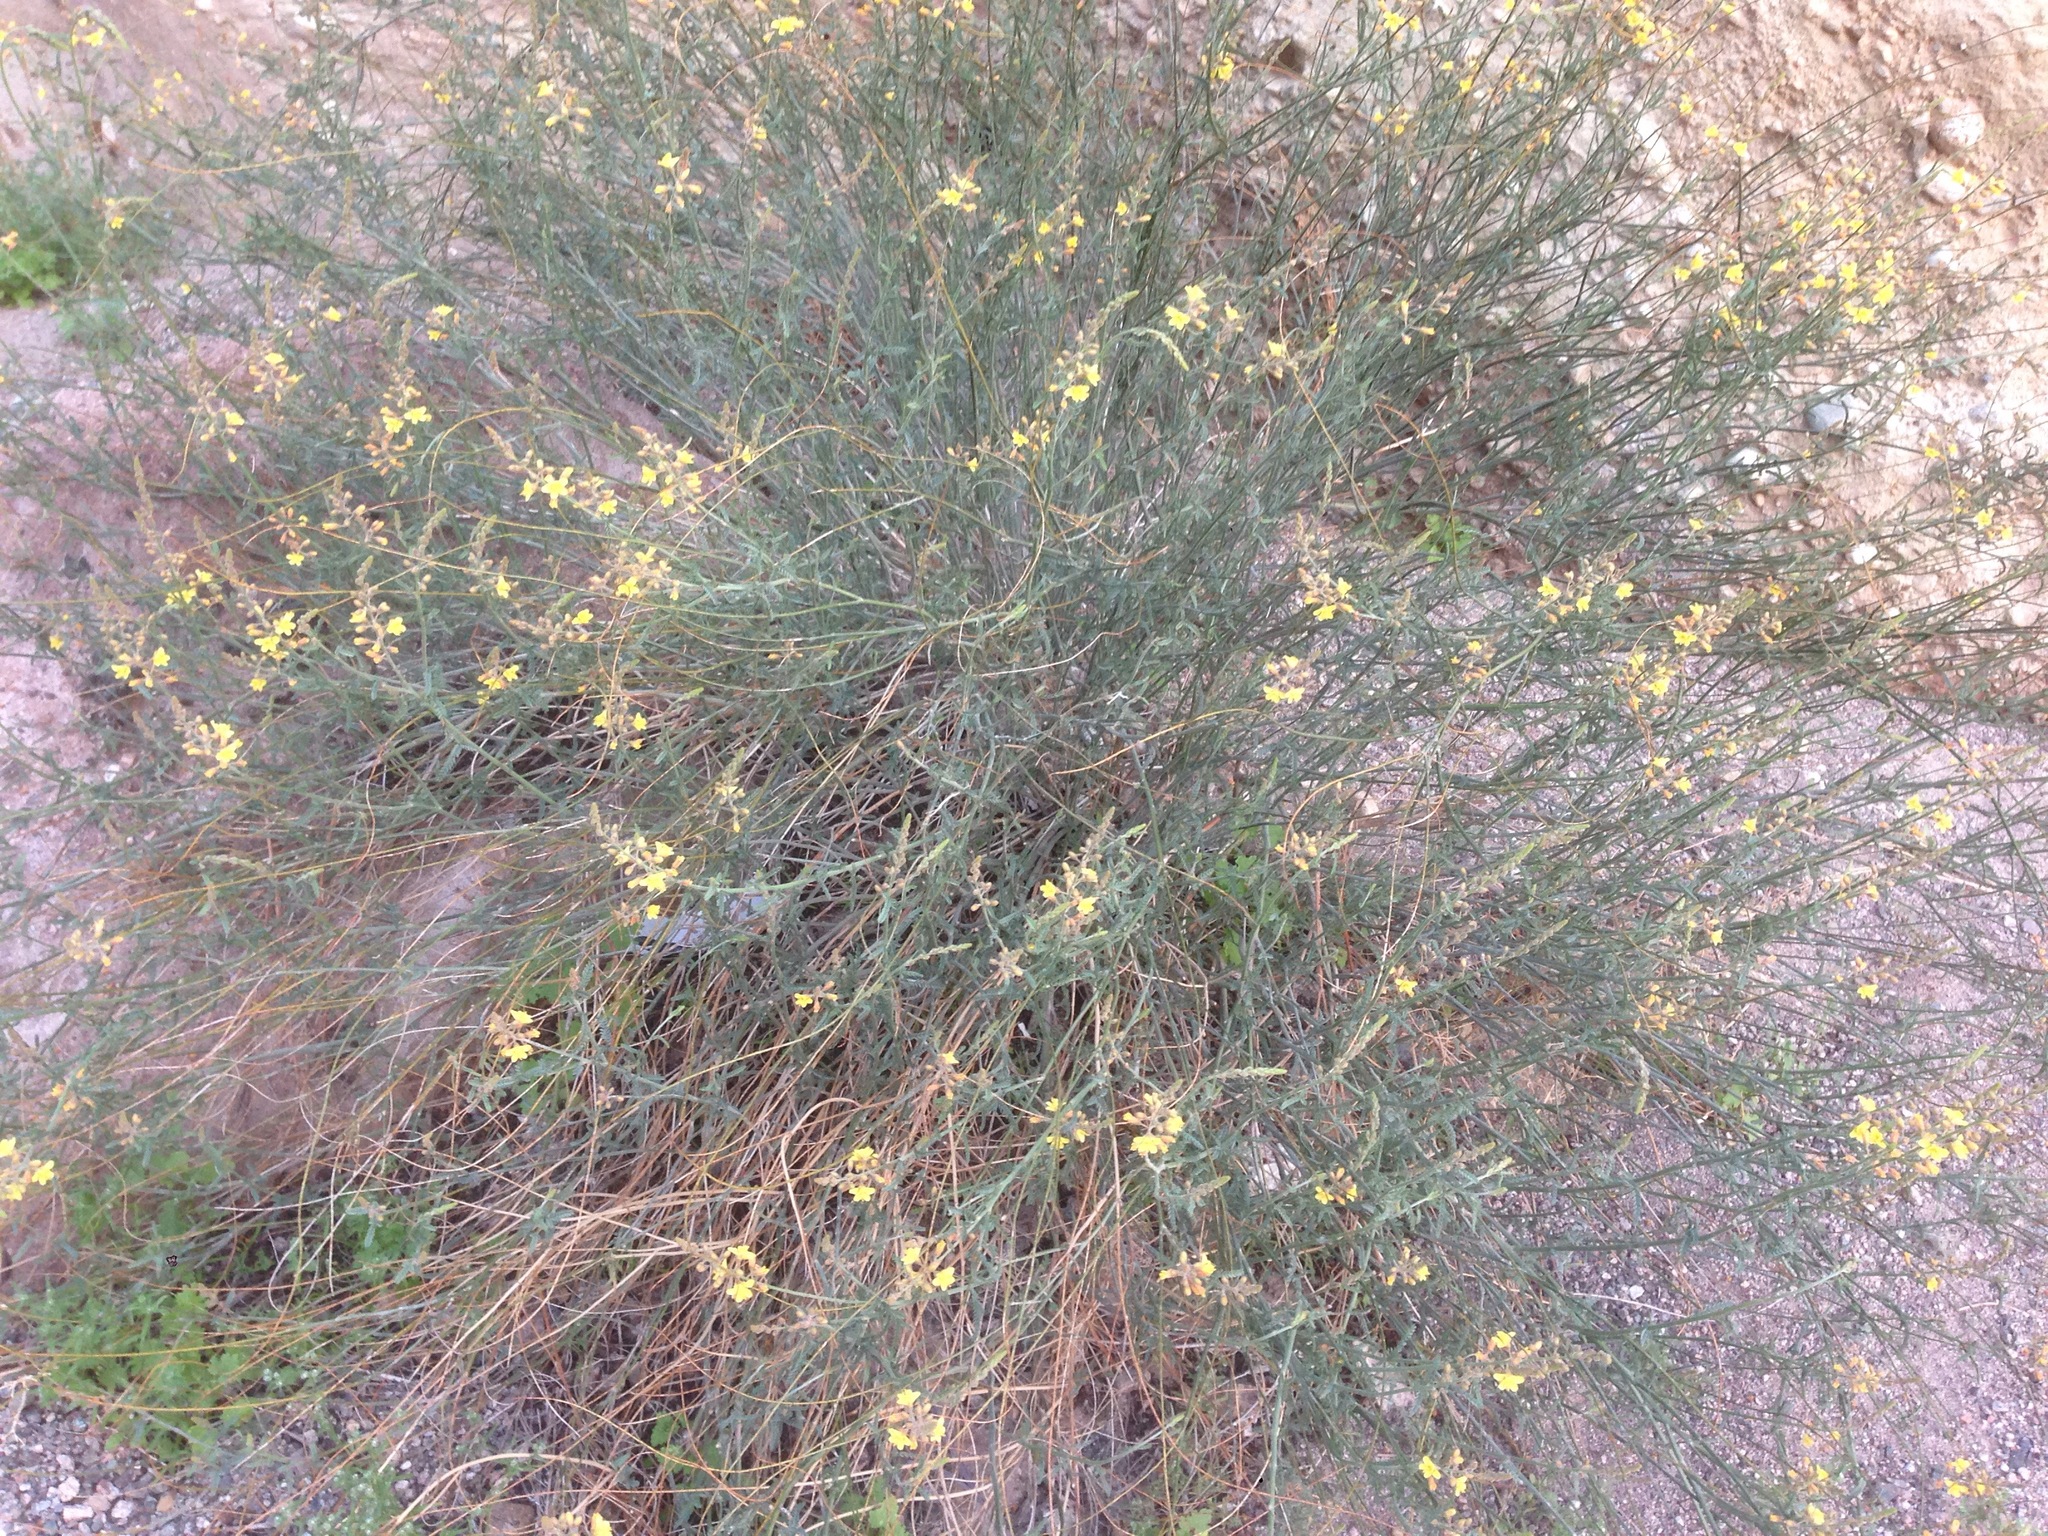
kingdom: Plantae
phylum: Tracheophyta
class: Magnoliopsida
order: Fabales
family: Fabaceae
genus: Hoffmannseggia
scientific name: Hoffmannseggia microphylla
